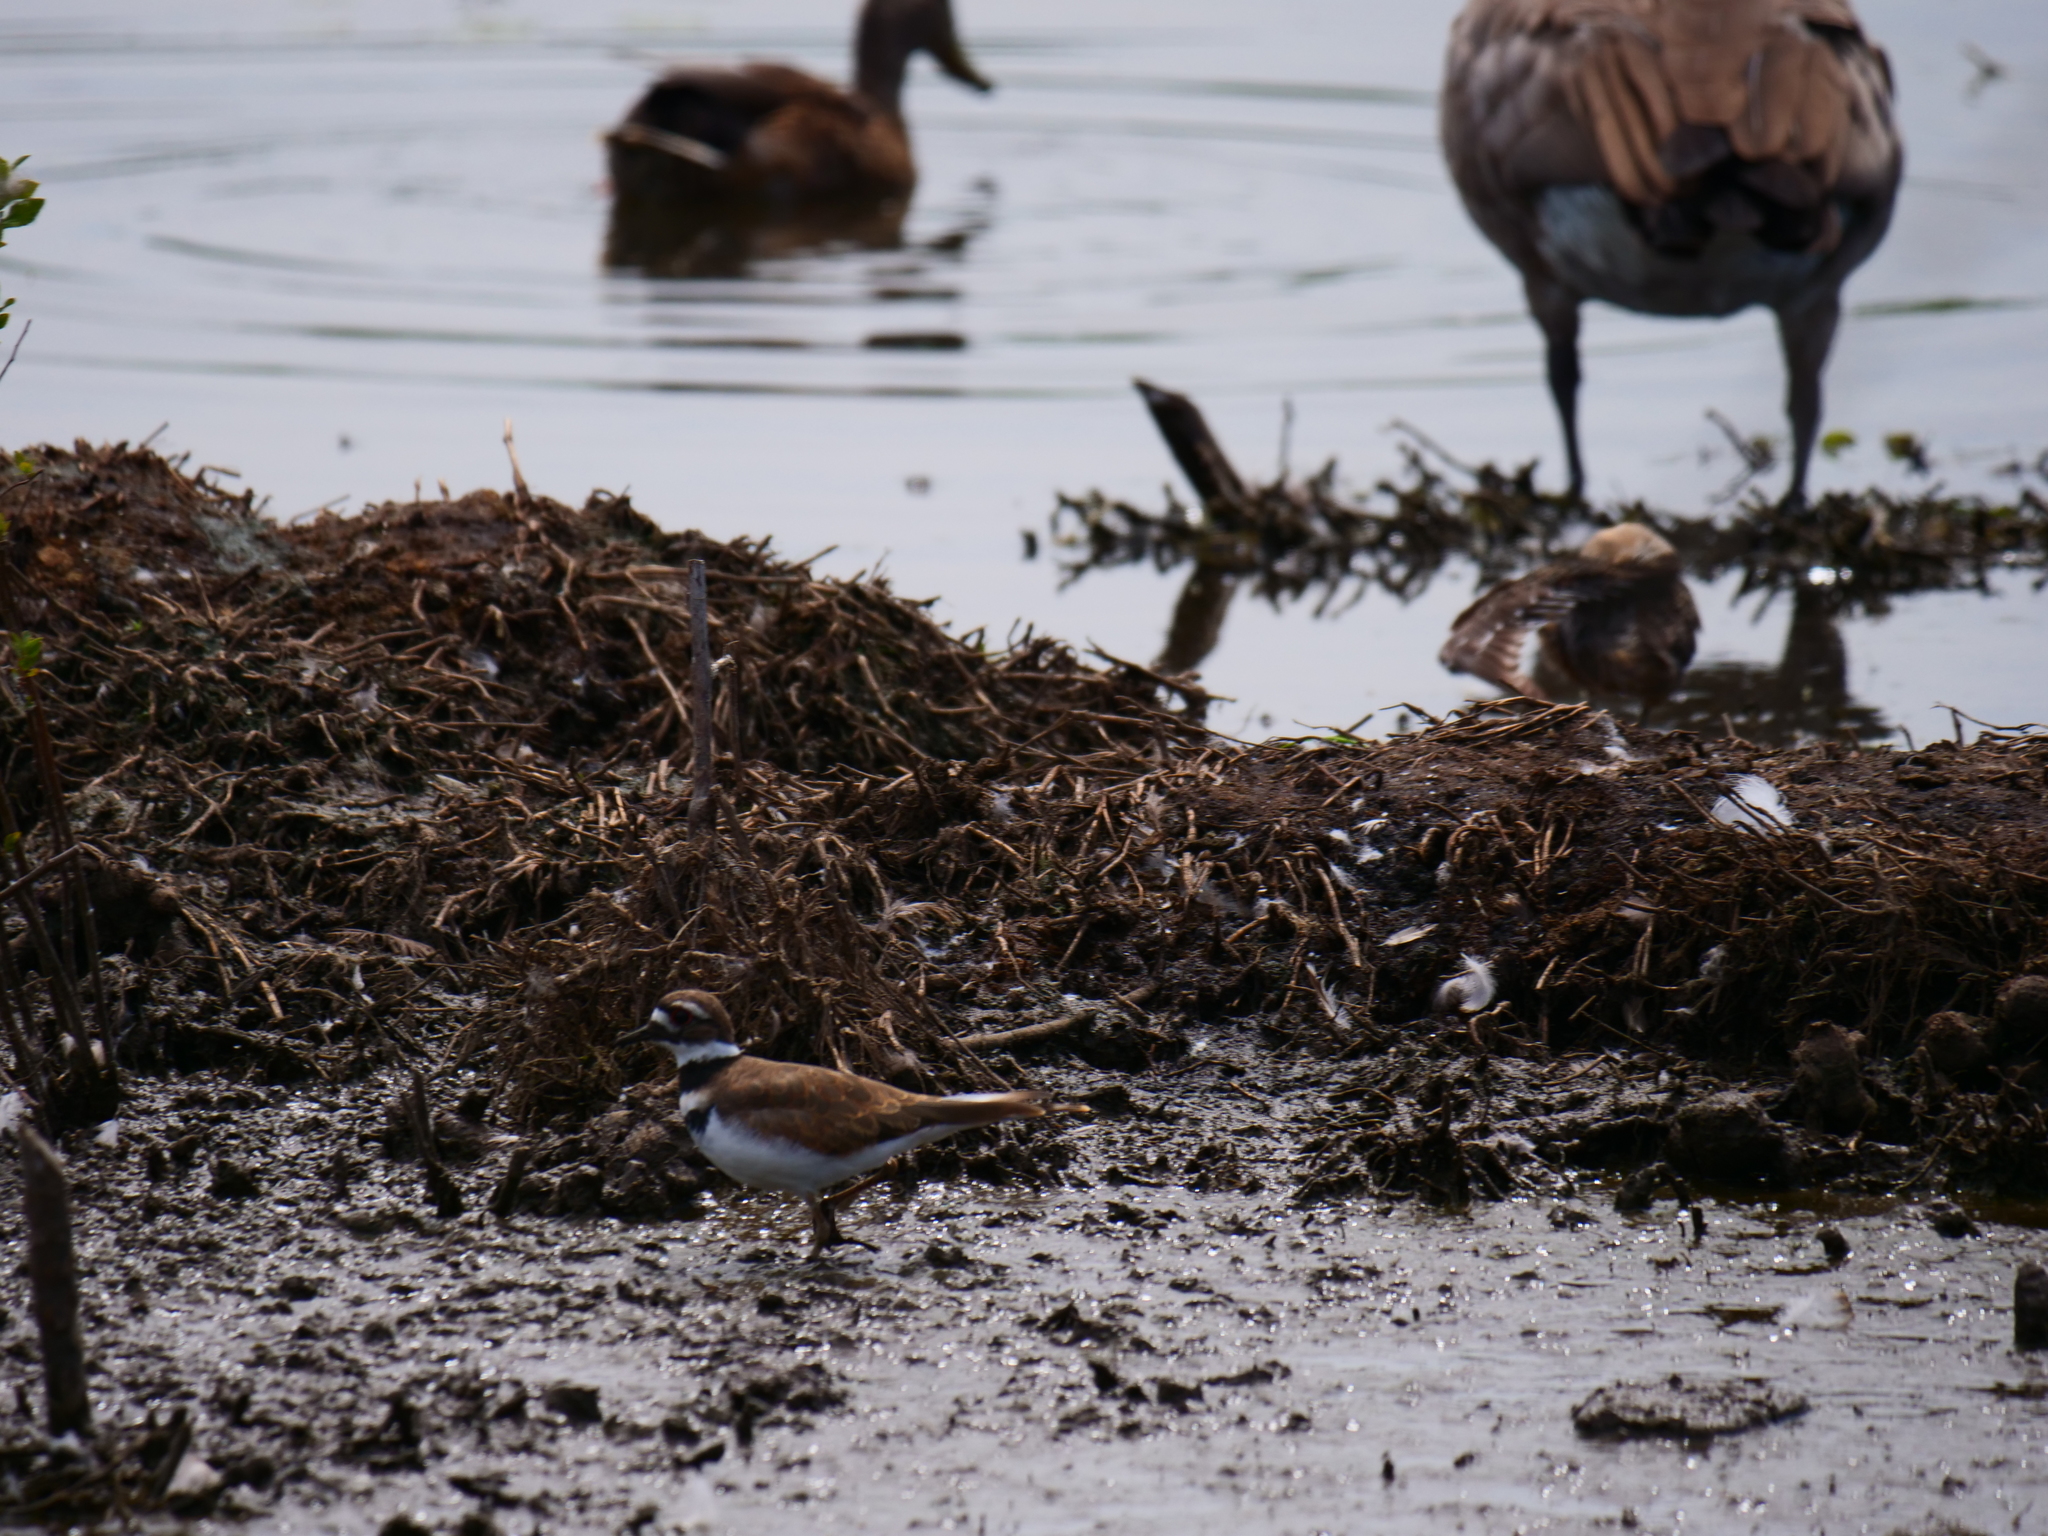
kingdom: Animalia
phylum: Chordata
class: Aves
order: Charadriiformes
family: Charadriidae
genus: Charadrius
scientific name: Charadrius vociferus
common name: Killdeer
